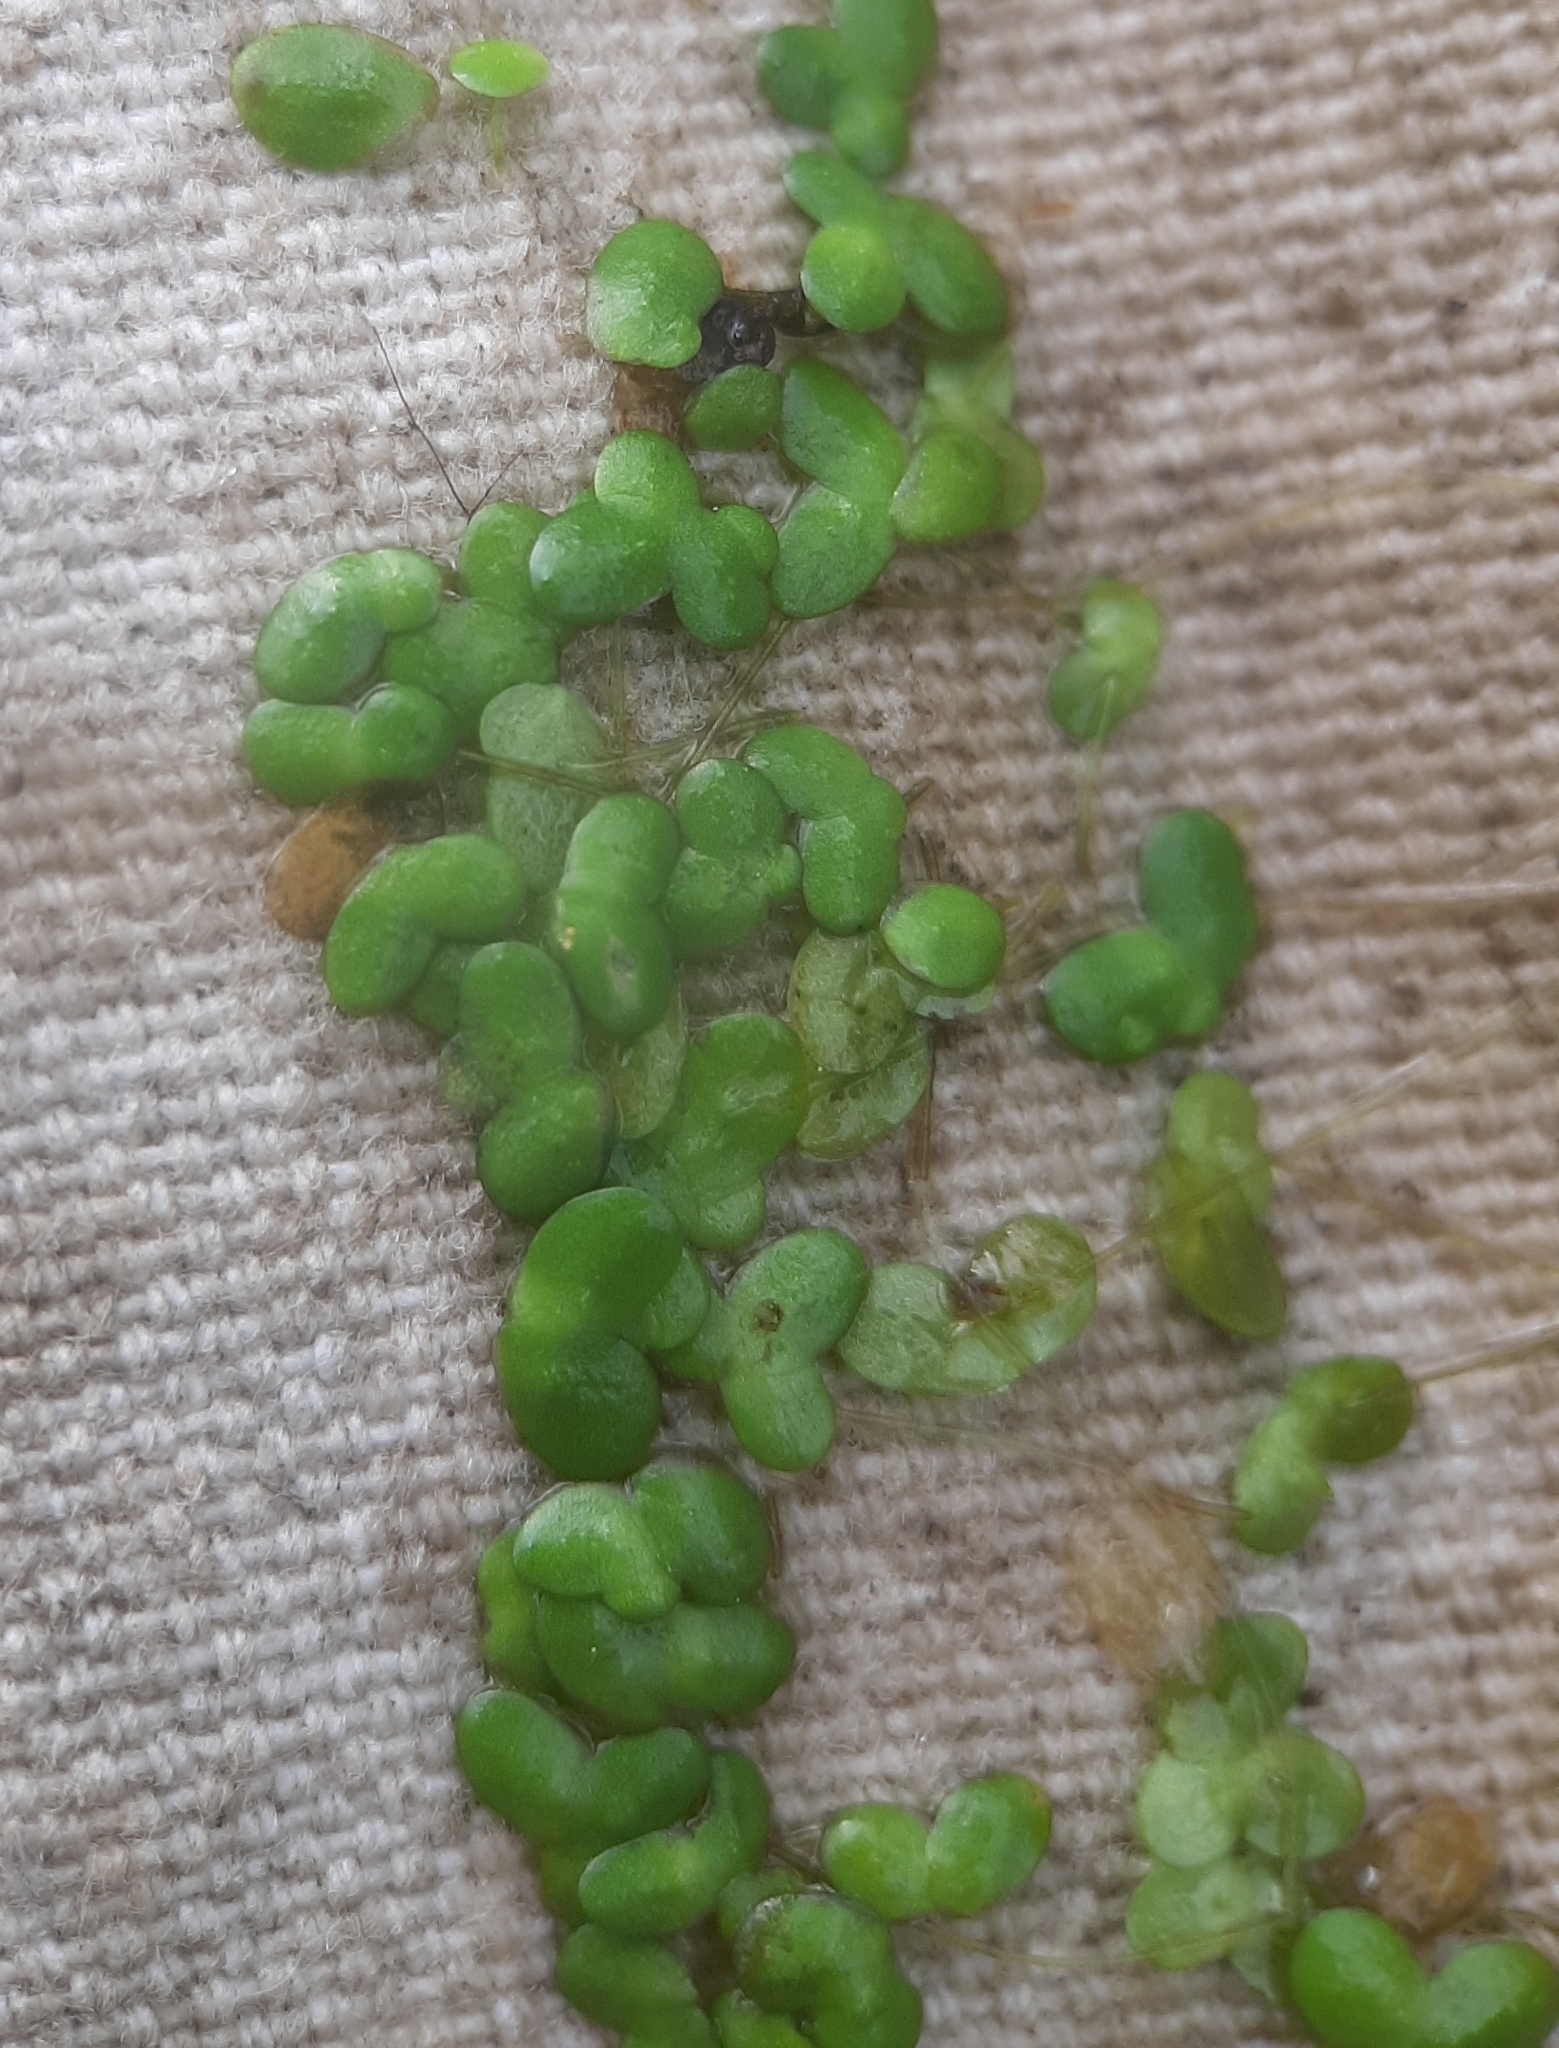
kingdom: Plantae
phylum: Tracheophyta
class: Liliopsida
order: Alismatales
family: Araceae
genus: Lemna
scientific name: Lemna turionifera
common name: Perennial duckweed
